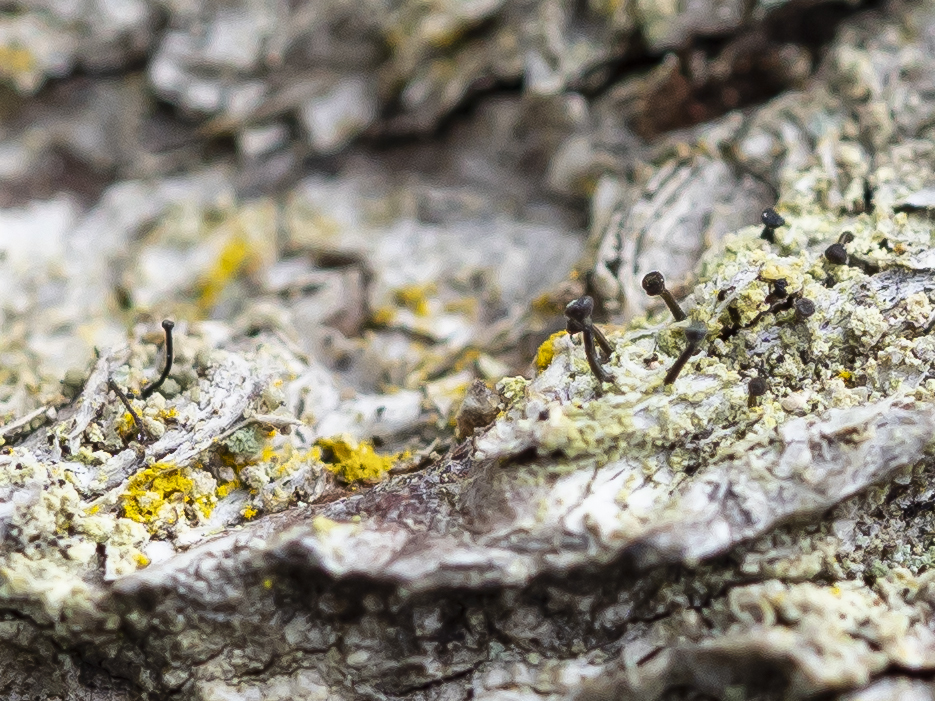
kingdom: Fungi
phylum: Ascomycota
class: Coniocybomycetes
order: Coniocybales
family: Coniocybaceae
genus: Chaenotheca
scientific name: Chaenotheca trichialis
